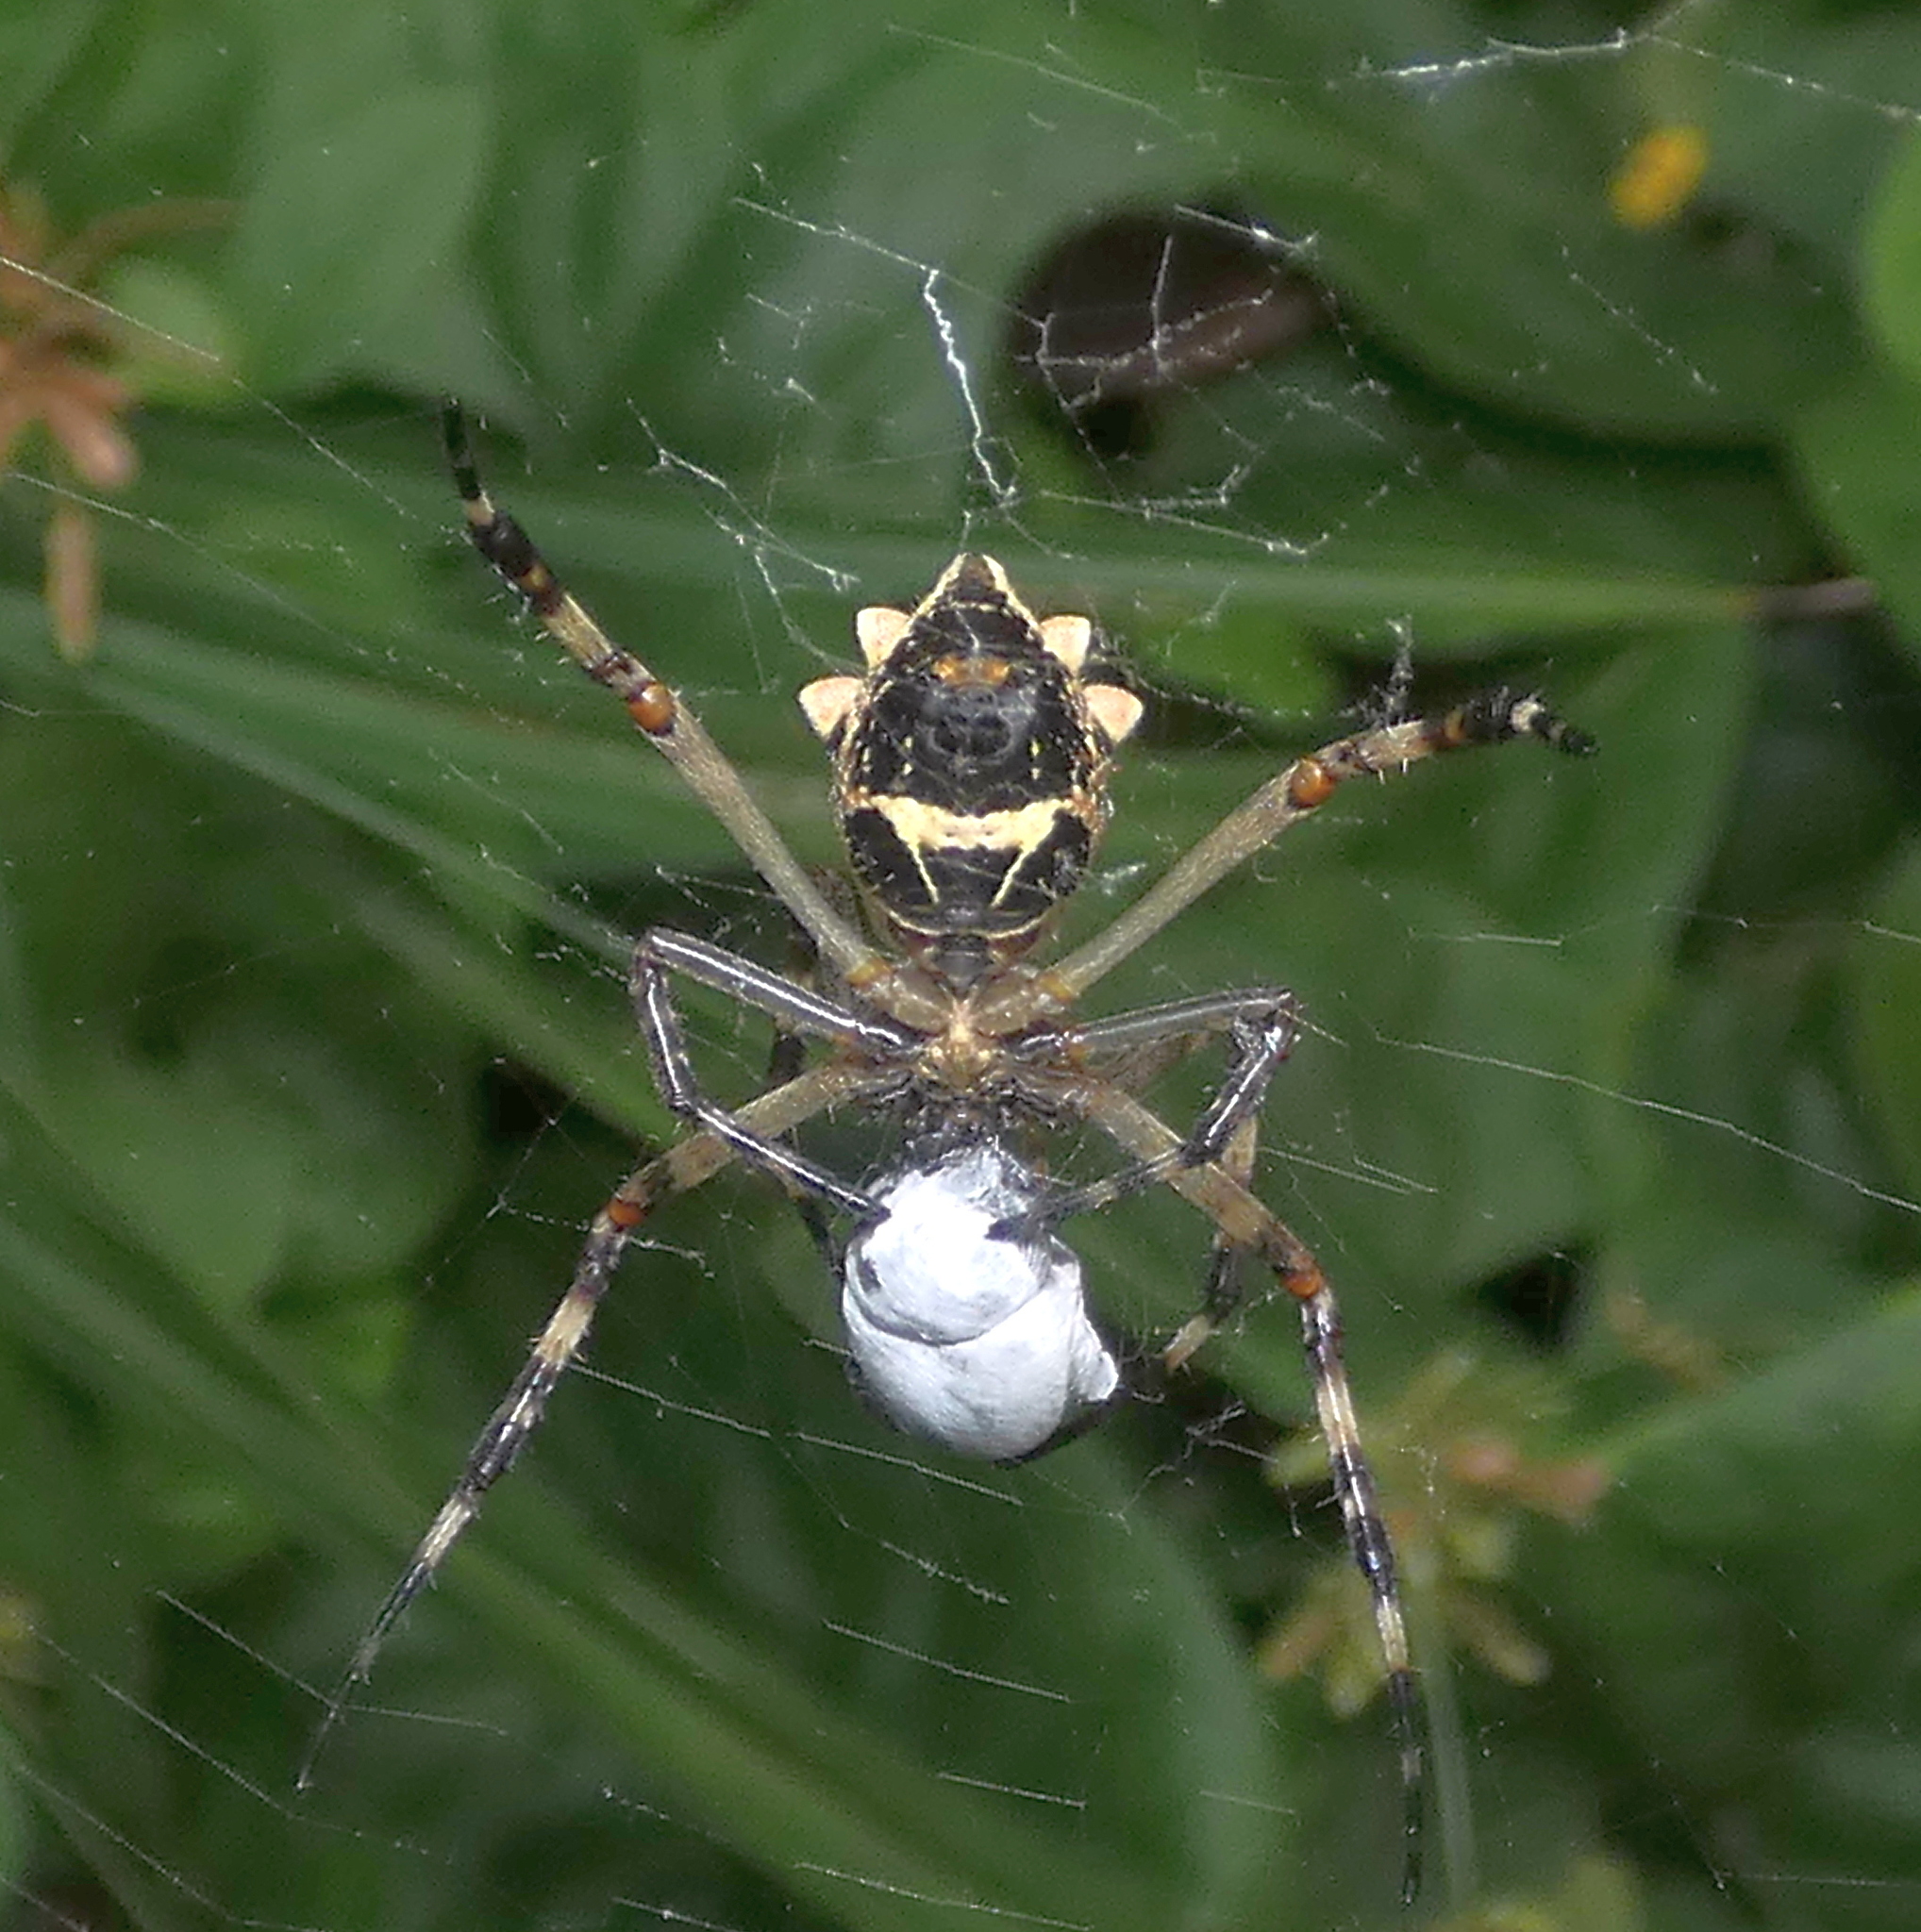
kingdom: Animalia
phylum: Arthropoda
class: Arachnida
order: Araneae
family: Araneidae
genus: Argiope
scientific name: Argiope argentata
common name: Orb weavers
